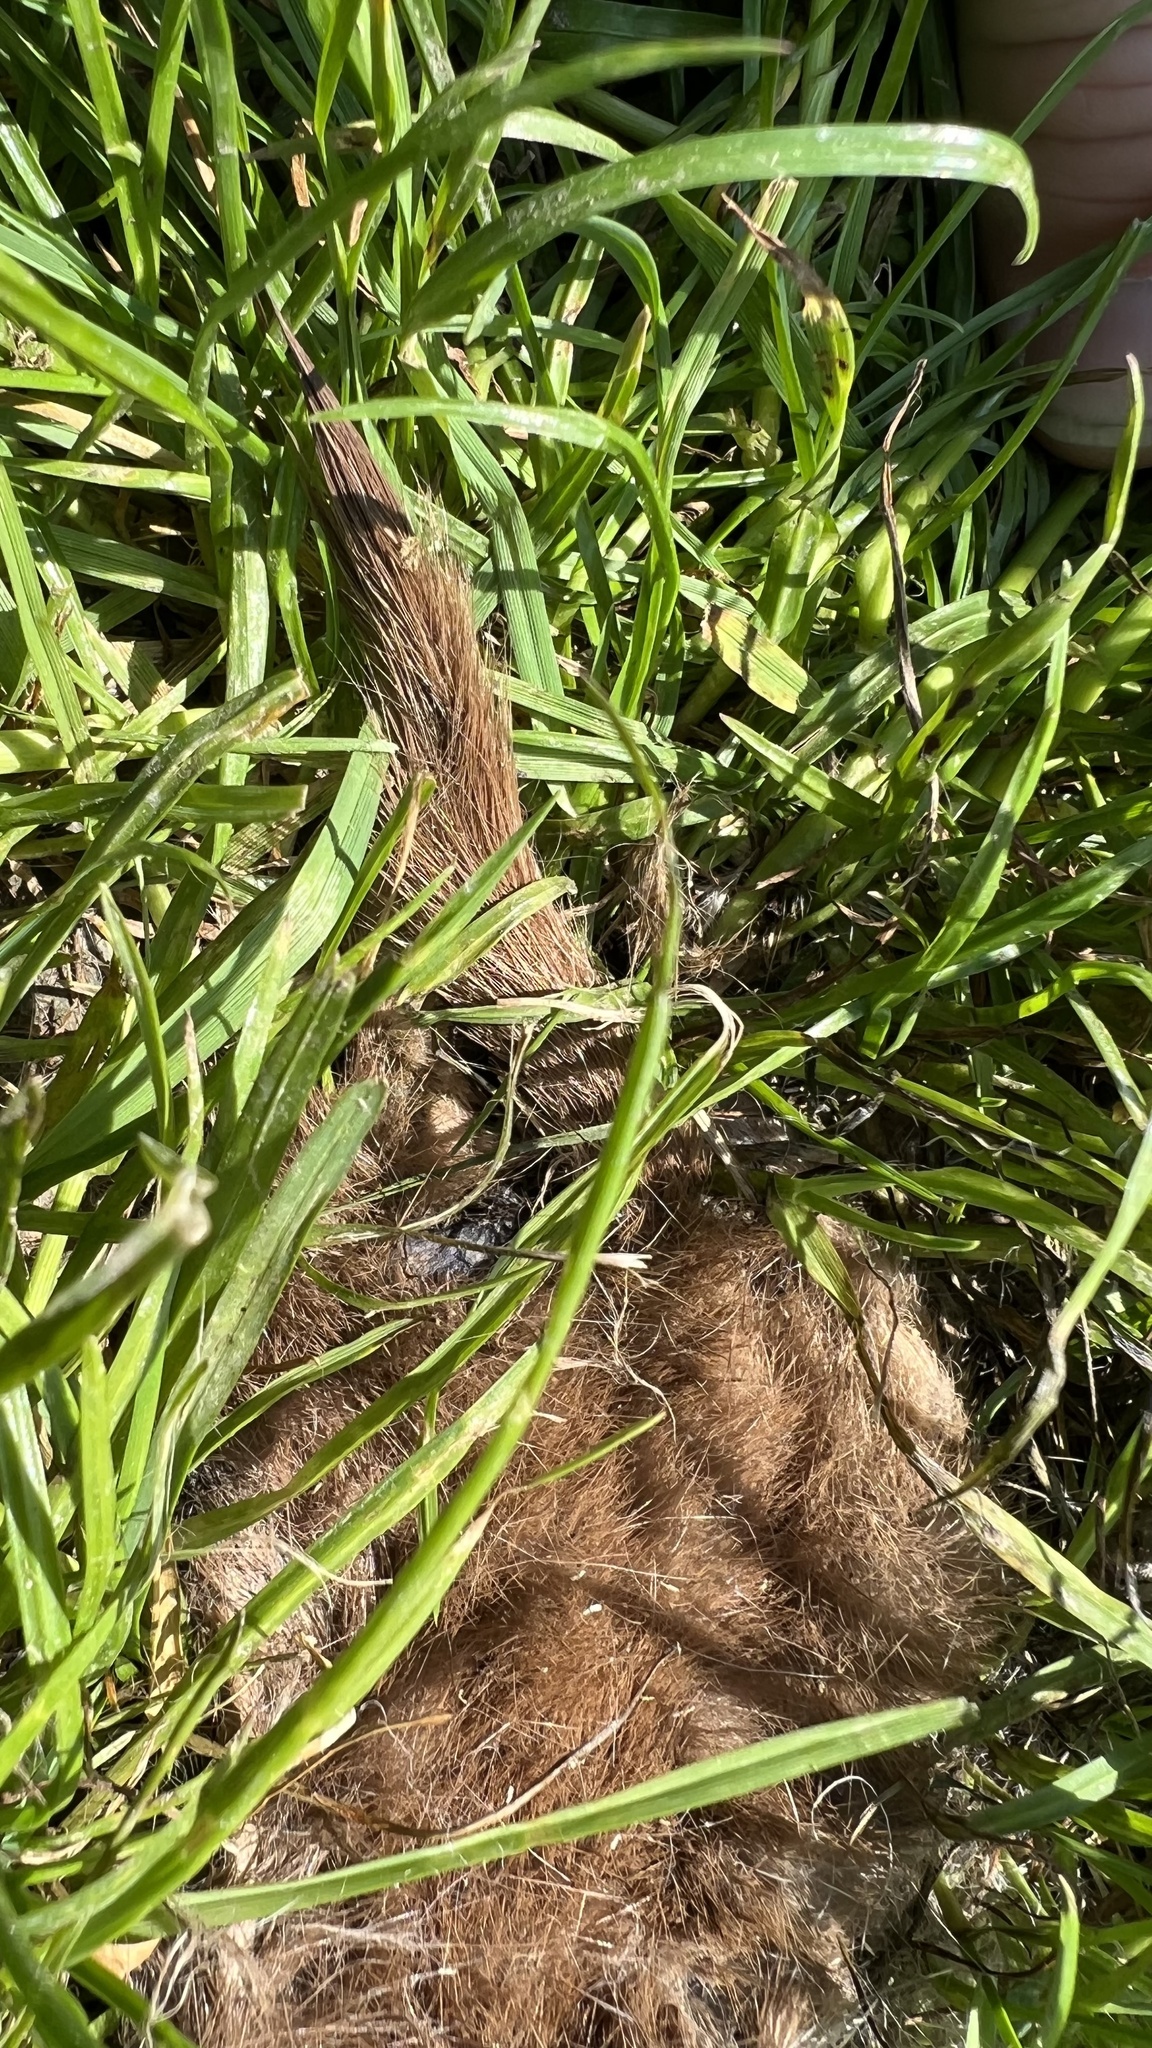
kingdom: Animalia
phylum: Chordata
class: Mammalia
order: Carnivora
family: Mustelidae
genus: Mustela
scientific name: Mustela erminea
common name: Stoat
